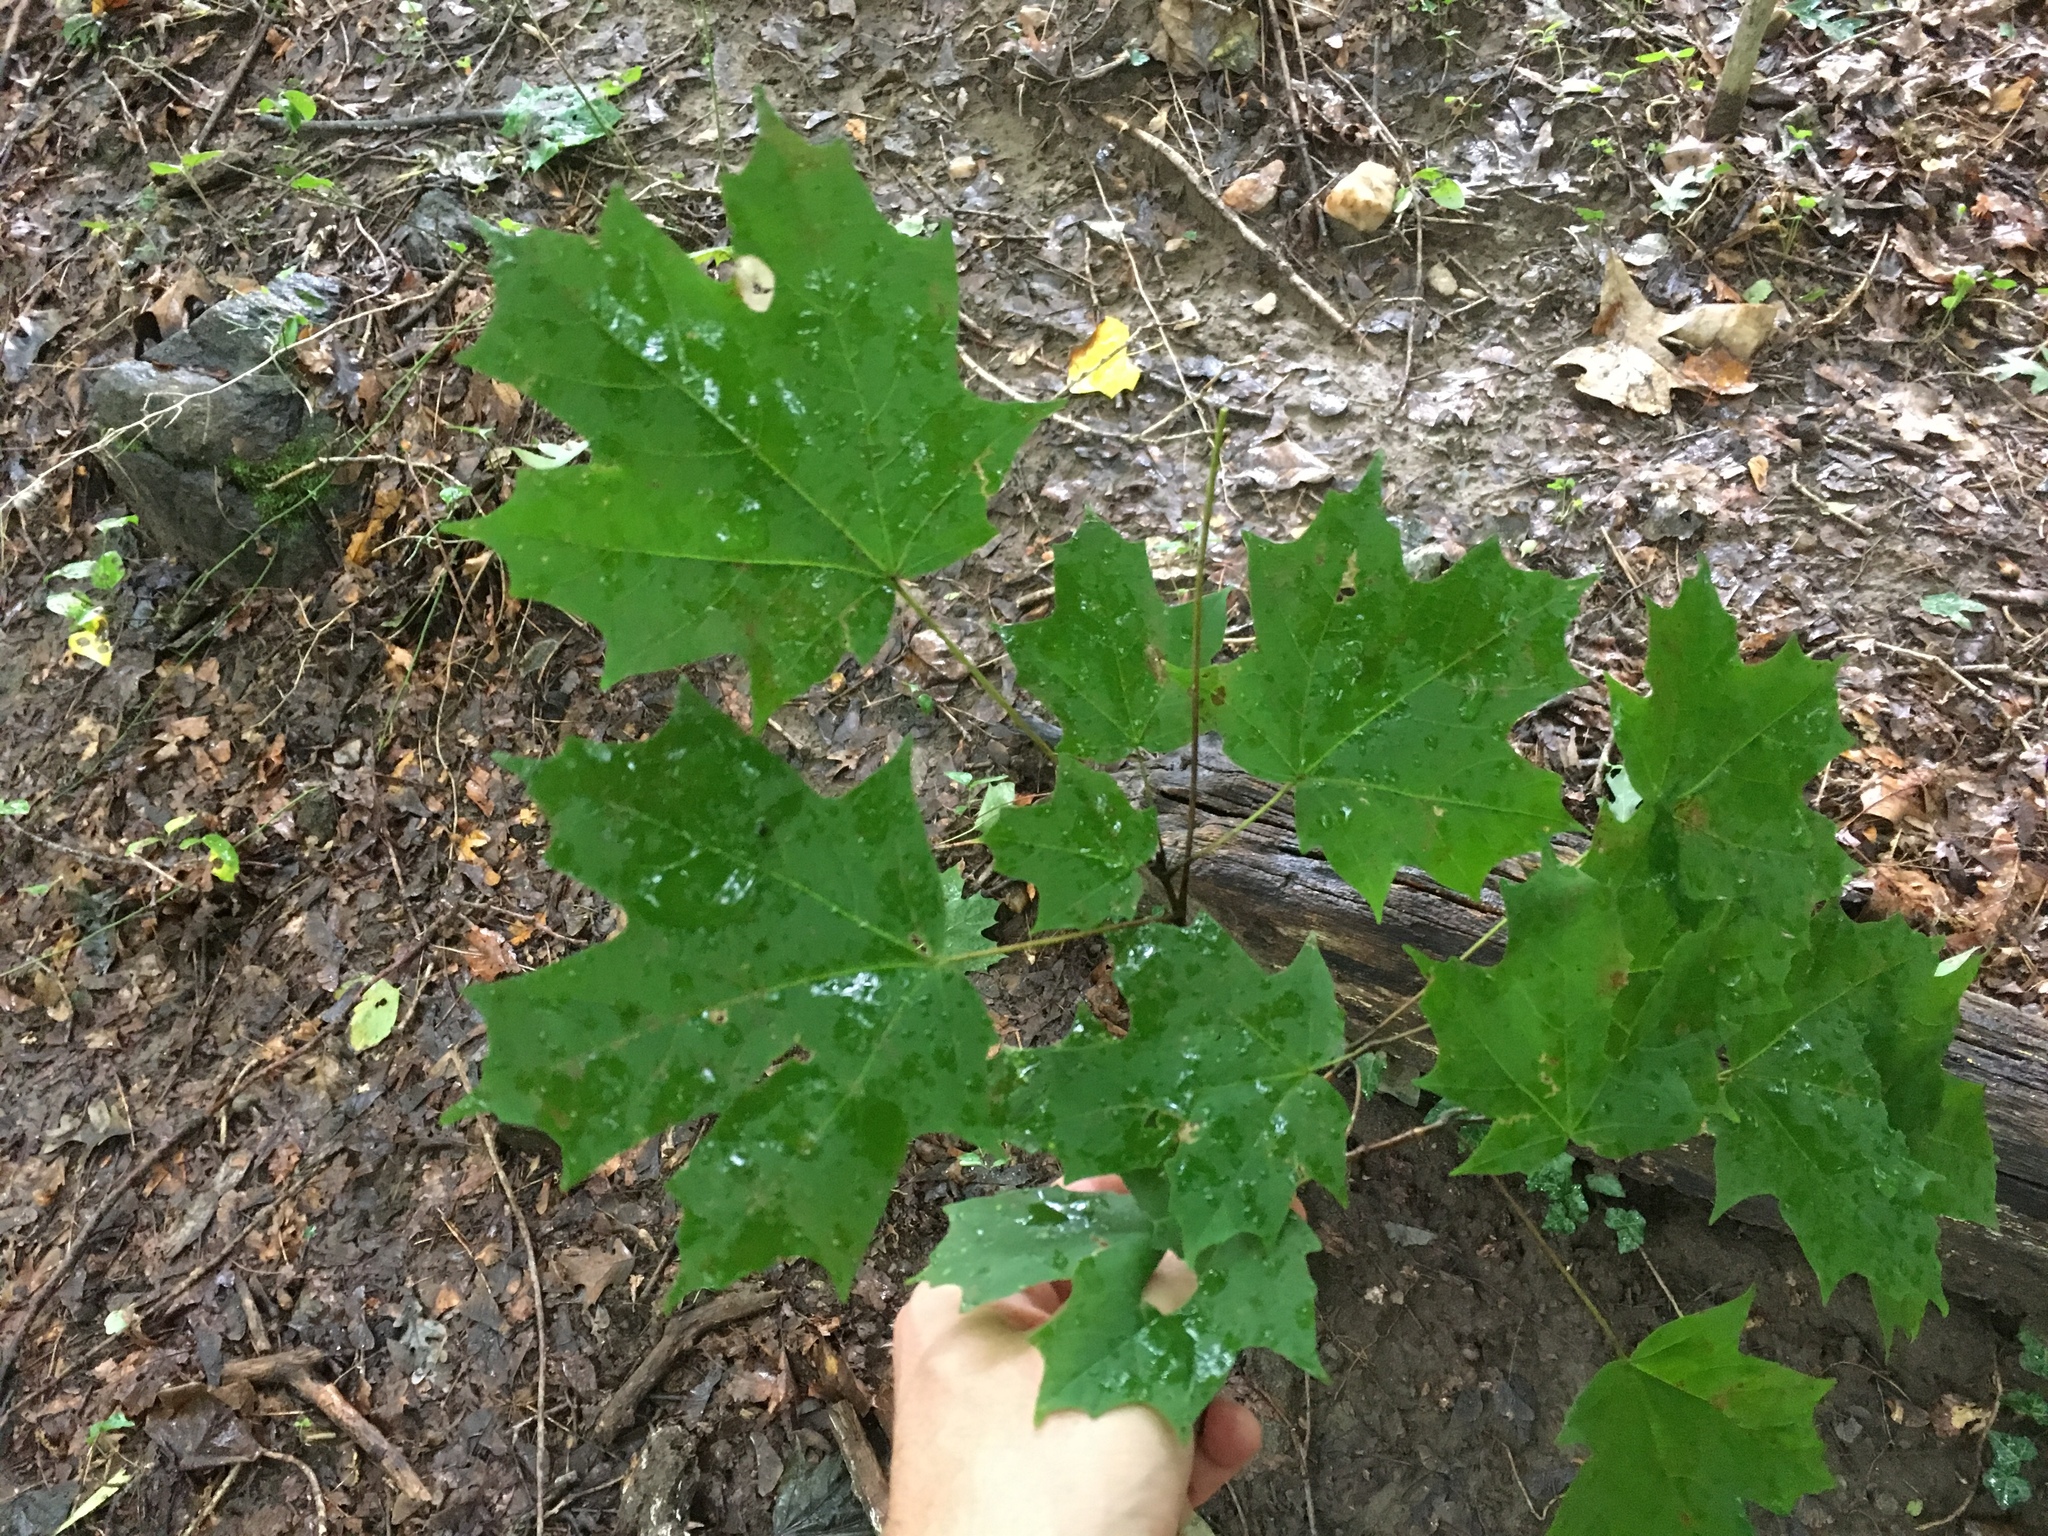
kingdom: Plantae
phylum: Tracheophyta
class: Magnoliopsida
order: Sapindales
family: Sapindaceae
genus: Acer
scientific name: Acer saccharum
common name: Sugar maple
